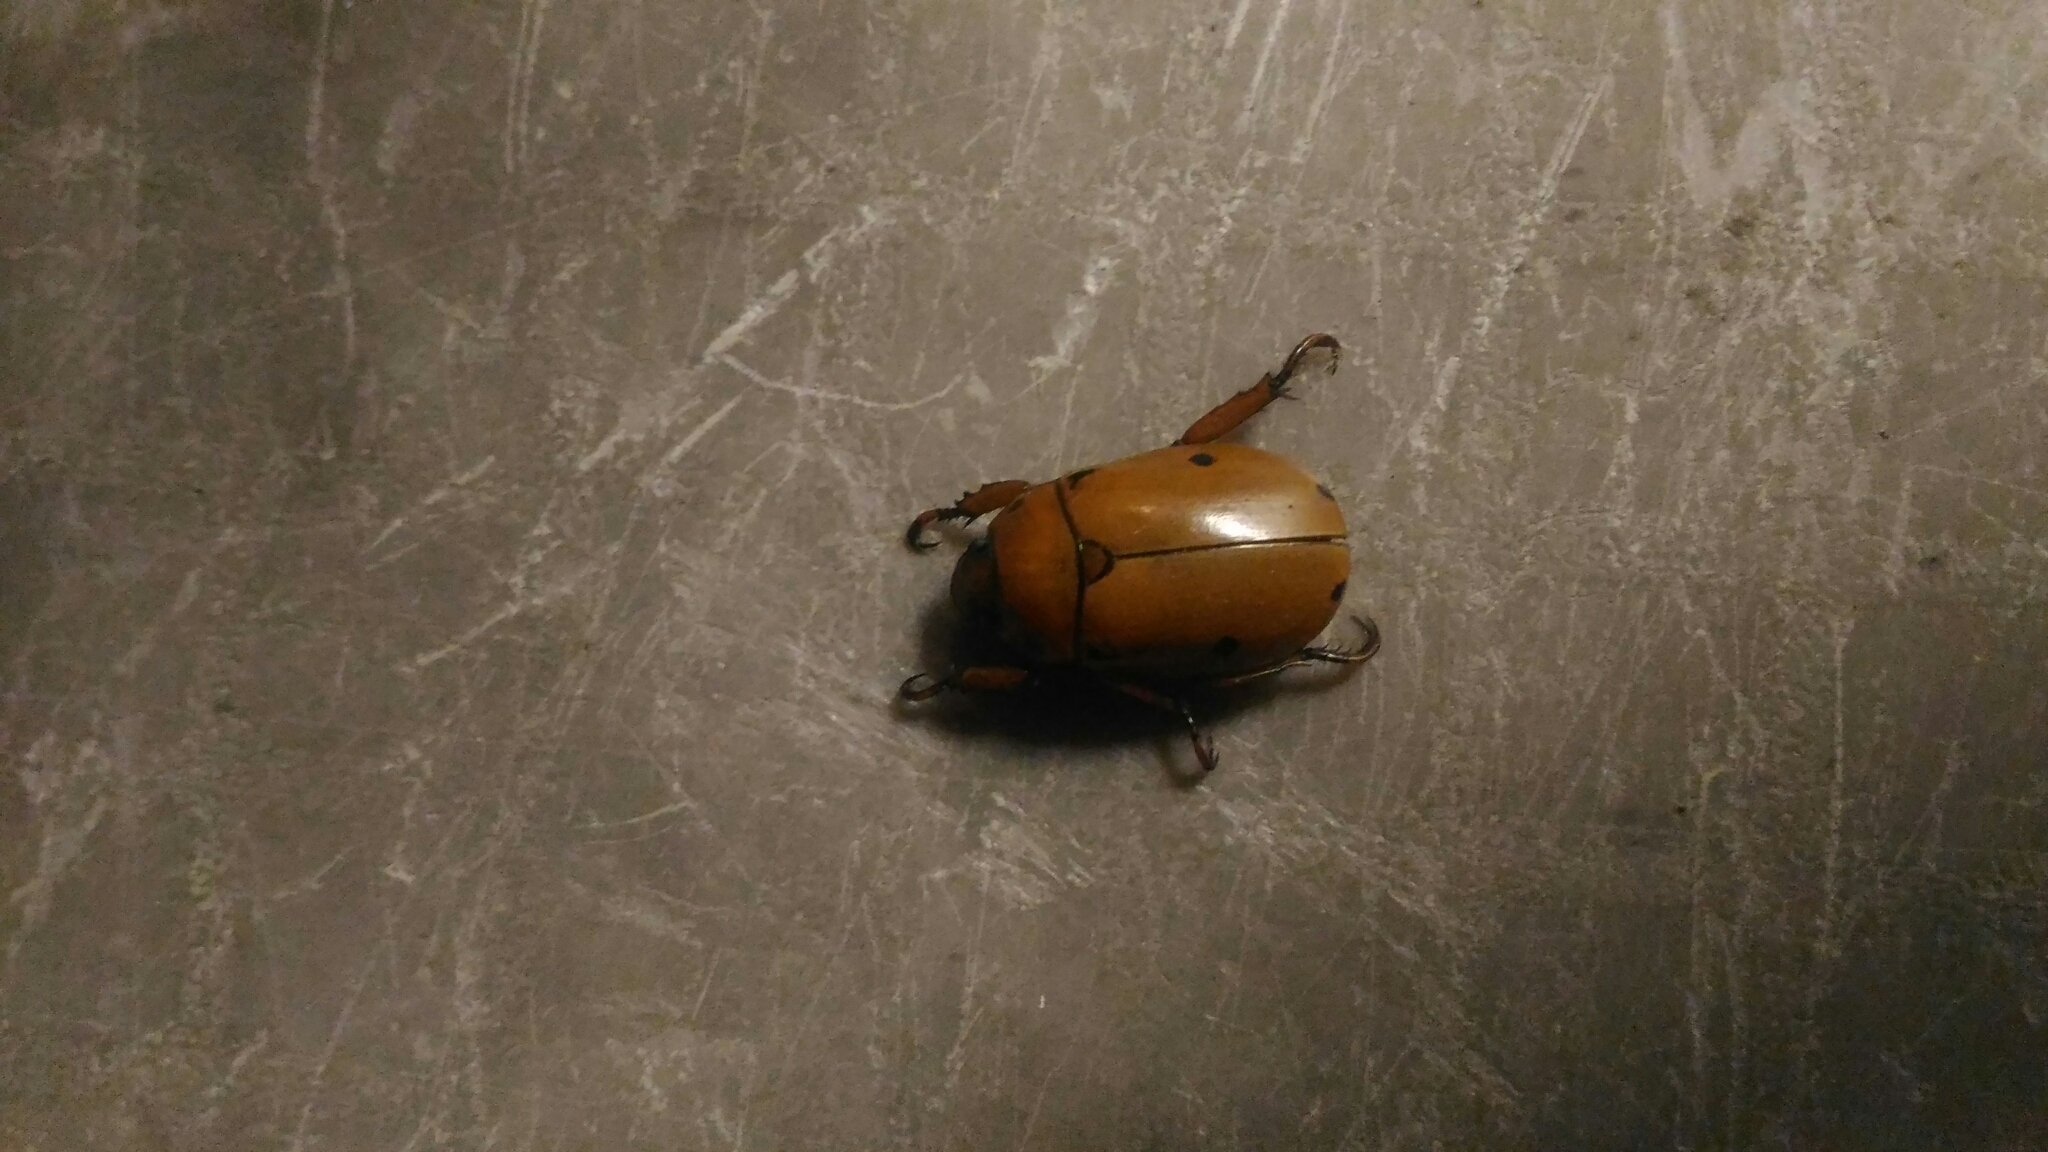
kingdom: Animalia
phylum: Arthropoda
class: Insecta
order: Coleoptera
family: Scarabaeidae
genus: Pelidnota
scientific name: Pelidnota punctata
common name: Grapevine beetle
